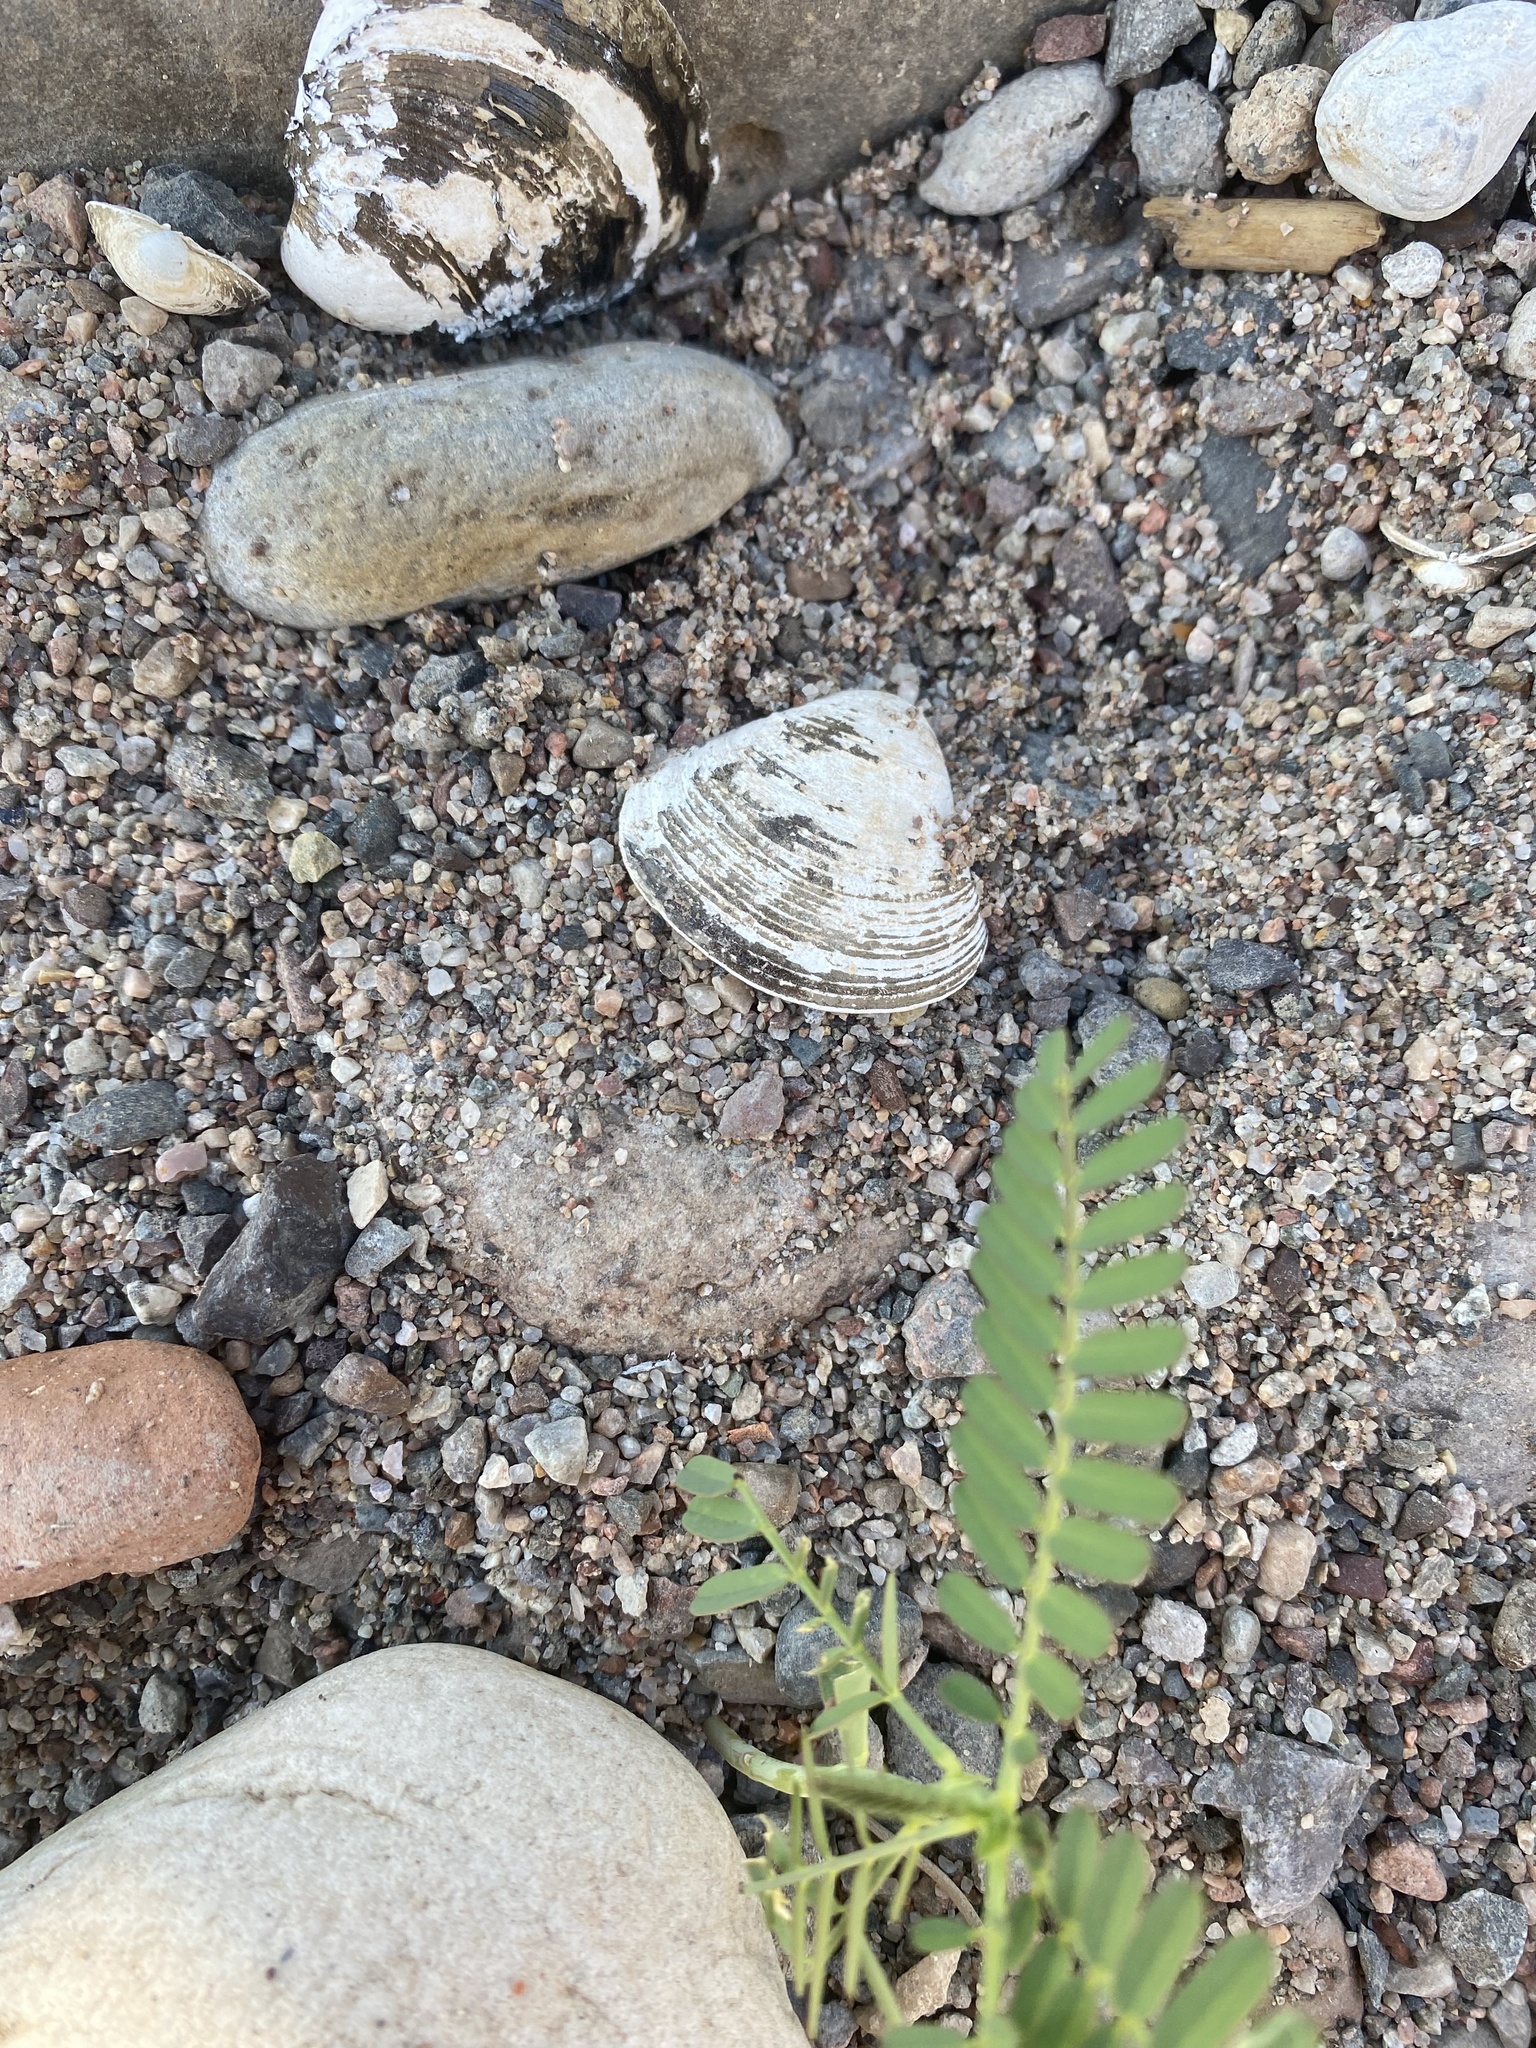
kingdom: Animalia
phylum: Mollusca
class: Bivalvia
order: Venerida
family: Cyrenidae
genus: Corbicula
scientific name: Corbicula fluminea
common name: Asian clam
